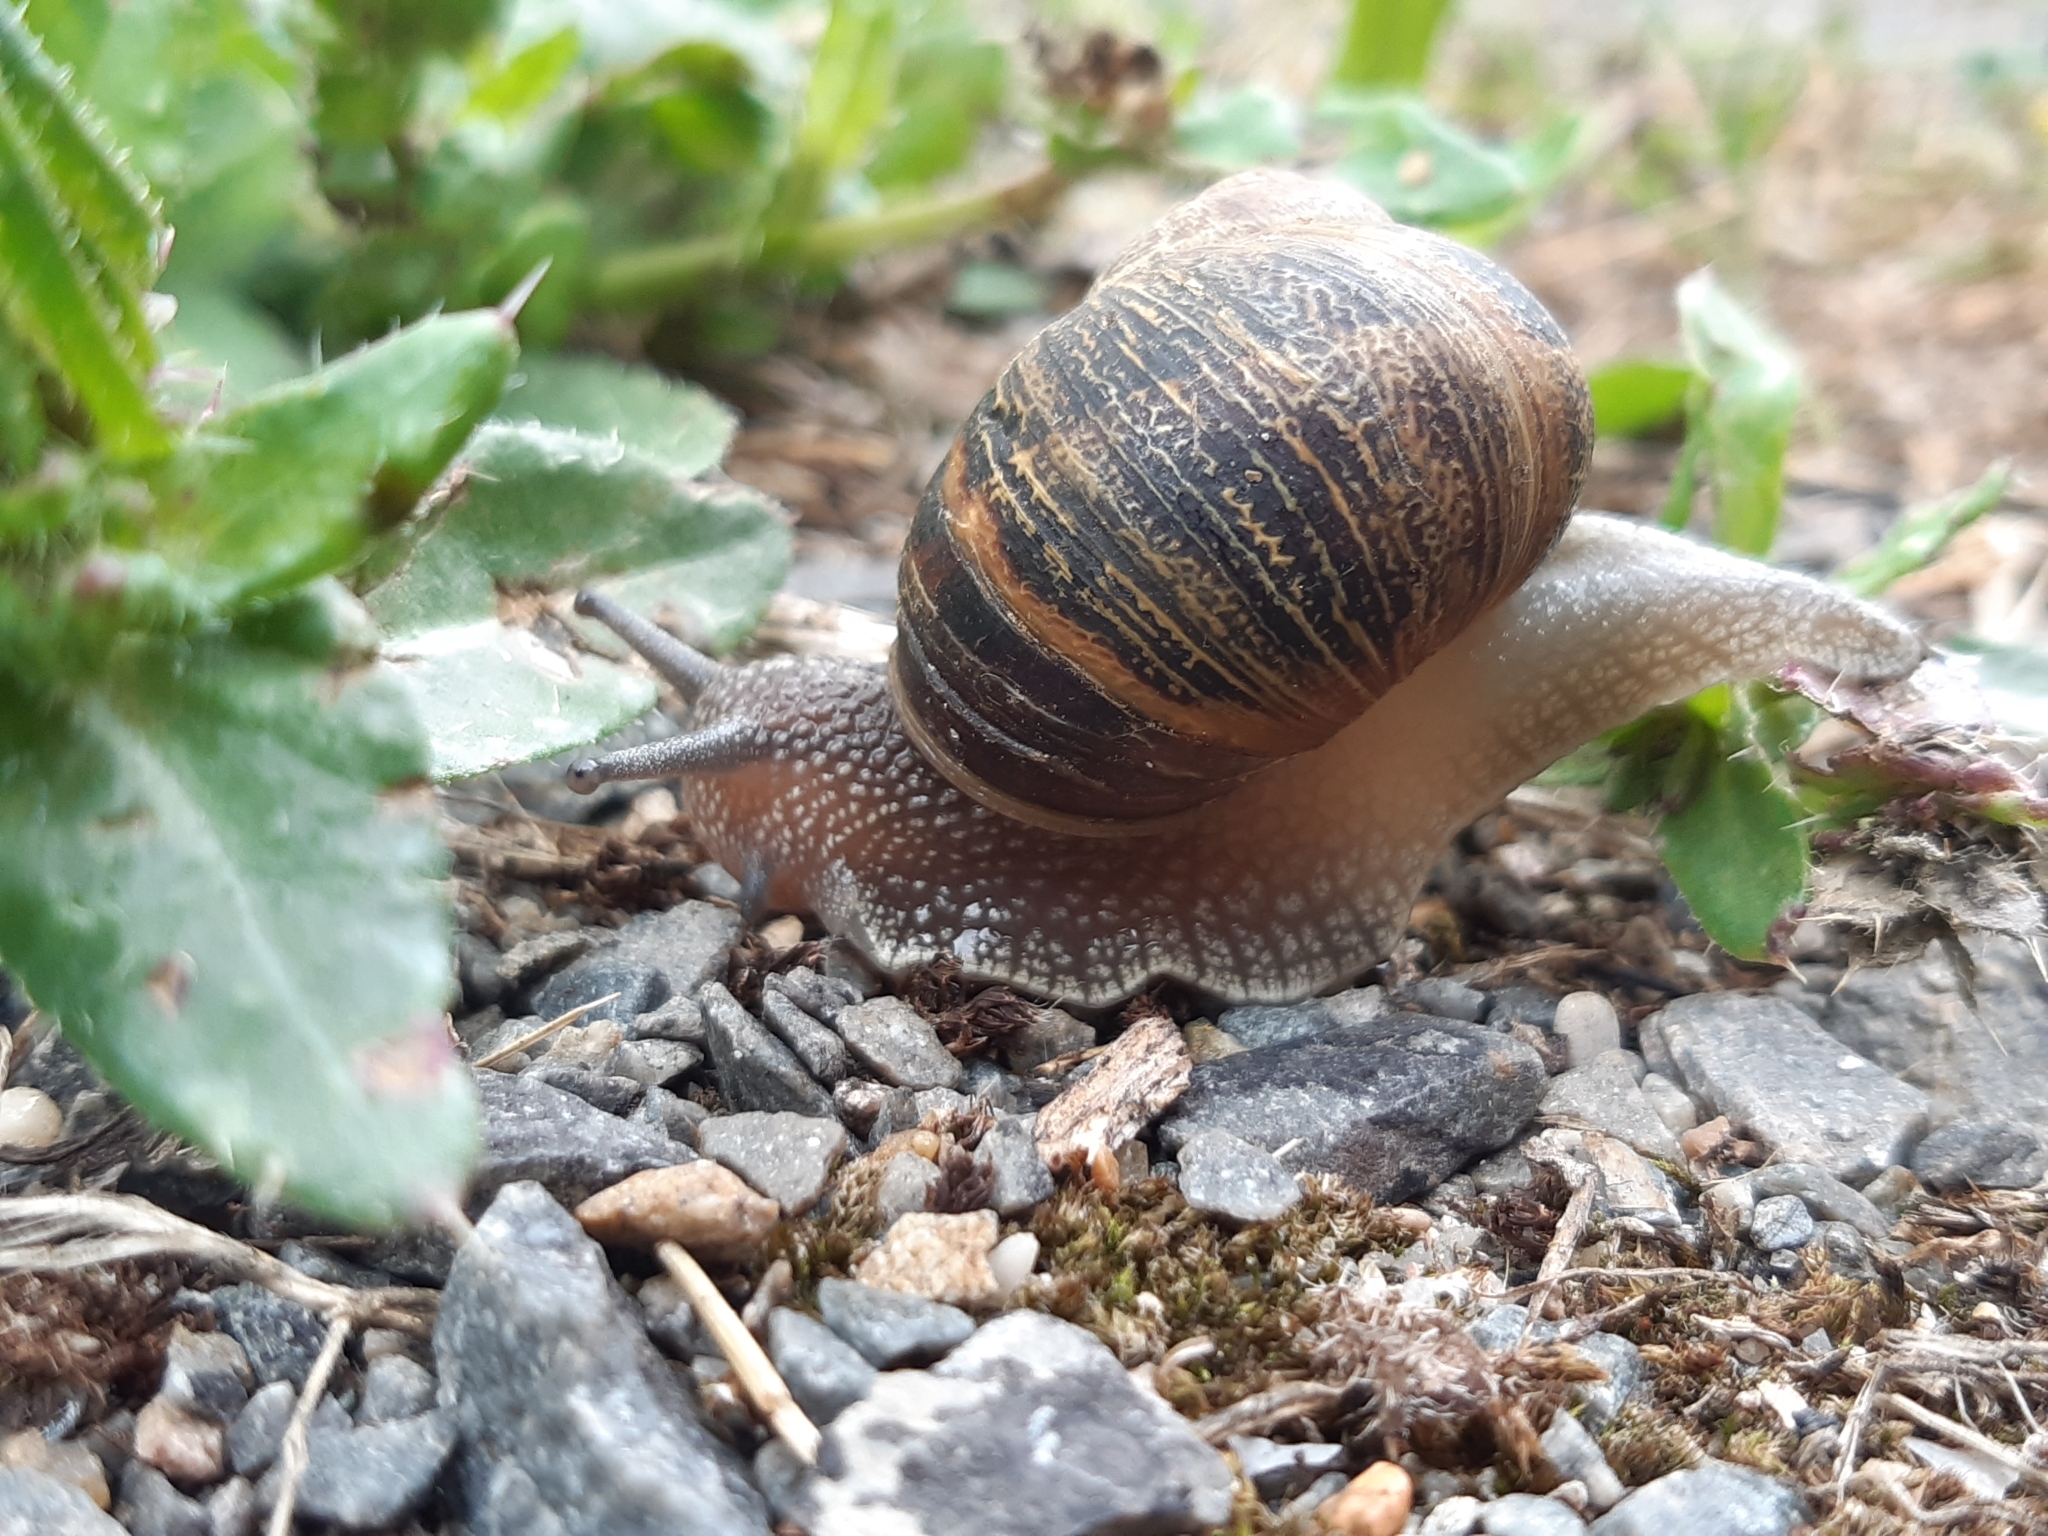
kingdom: Animalia
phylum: Mollusca
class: Gastropoda
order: Stylommatophora
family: Helicidae
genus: Cornu
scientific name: Cornu aspersum
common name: Brown garden snail
